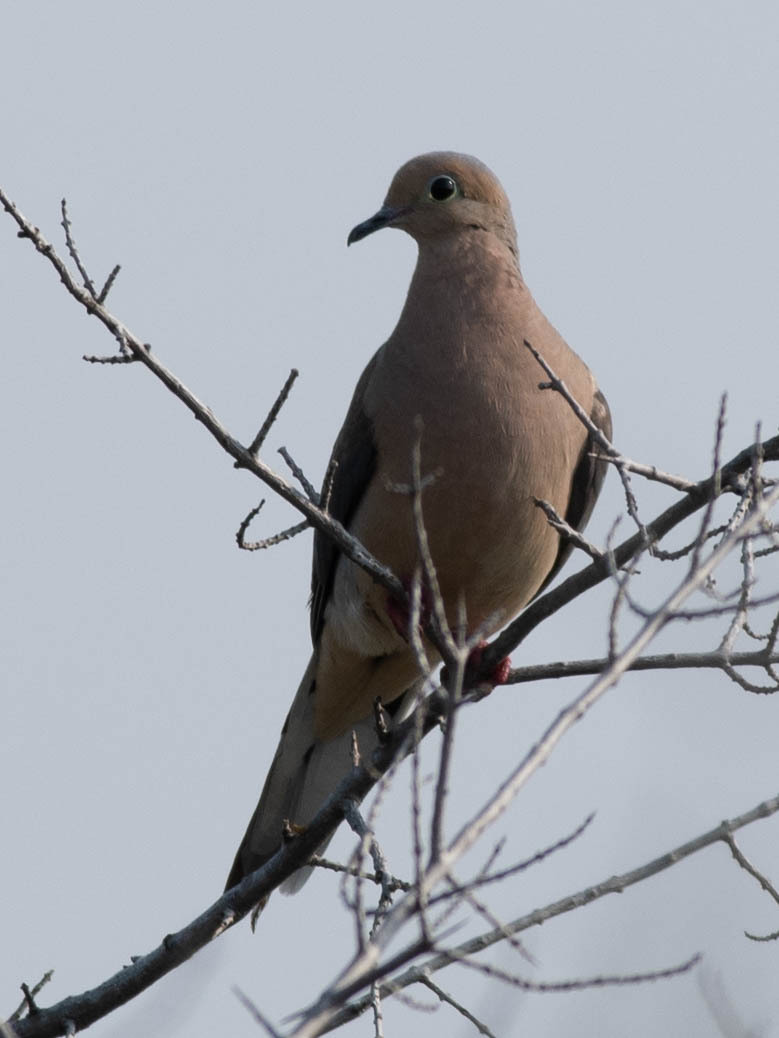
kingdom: Animalia
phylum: Chordata
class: Aves
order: Columbiformes
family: Columbidae
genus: Zenaida
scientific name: Zenaida macroura
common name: Mourning dove
